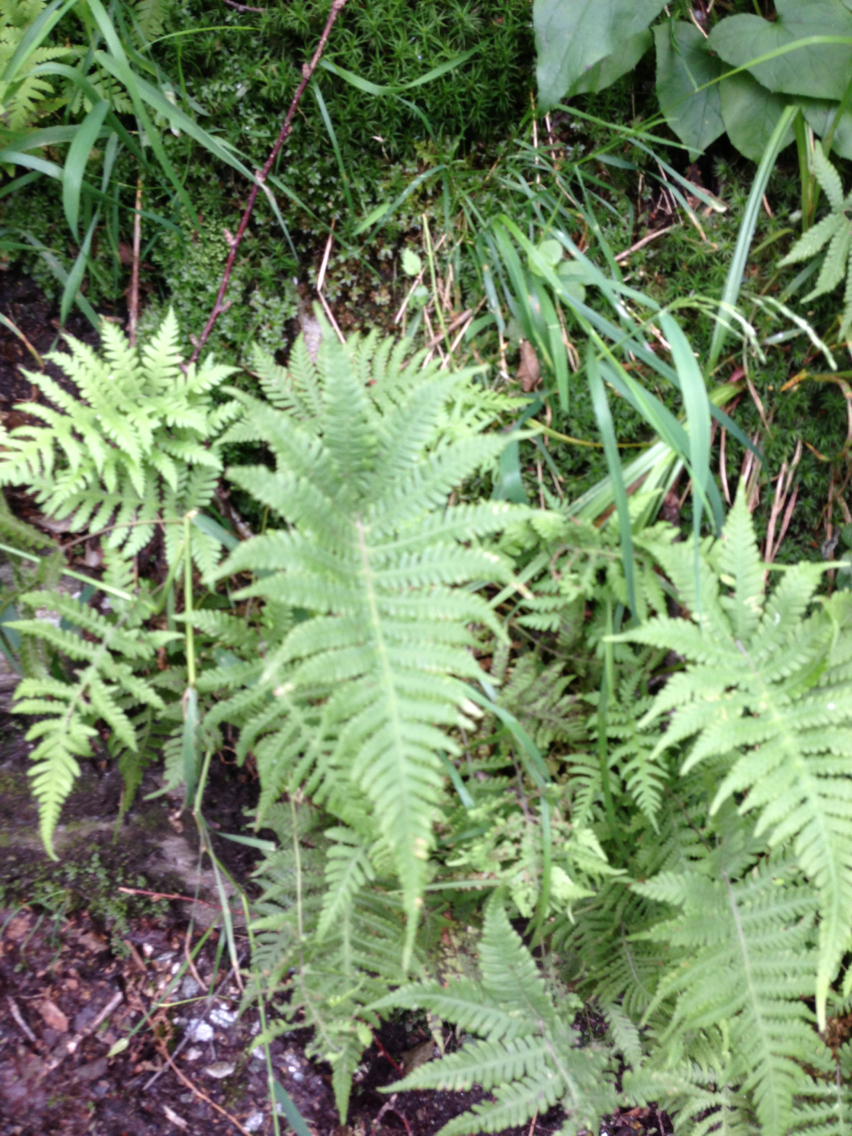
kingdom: Plantae
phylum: Tracheophyta
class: Polypodiopsida
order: Polypodiales
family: Thelypteridaceae
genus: Phegopteris
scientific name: Phegopteris connectilis
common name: Beech fern
